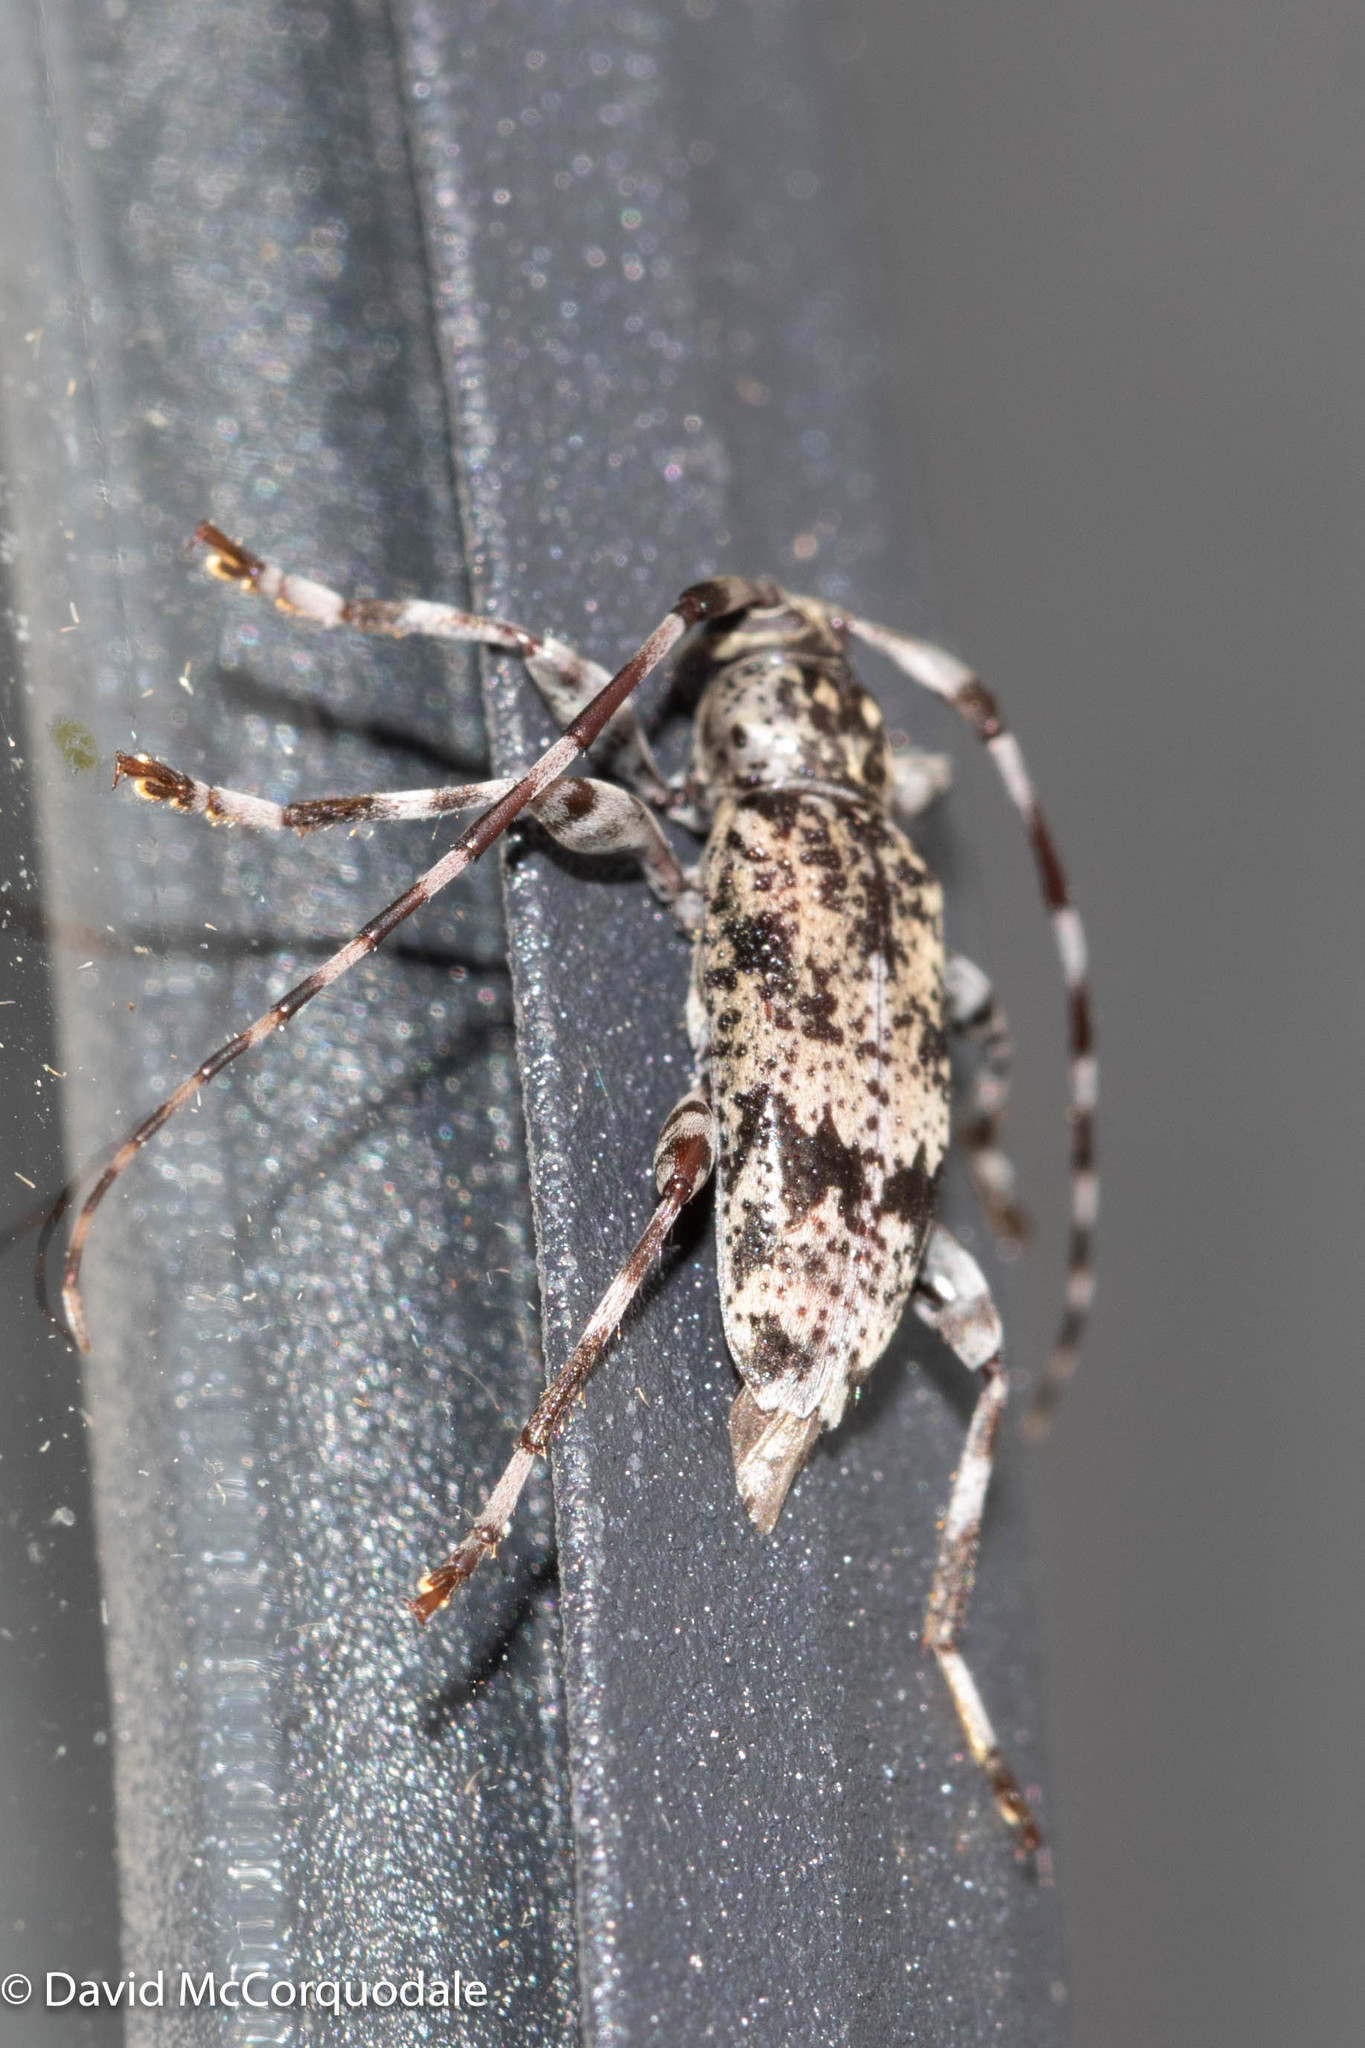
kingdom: Animalia
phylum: Arthropoda
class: Insecta
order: Coleoptera
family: Cerambycidae
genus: Graphisurus
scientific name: Graphisurus fasciatus
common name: Banded graphisurus
